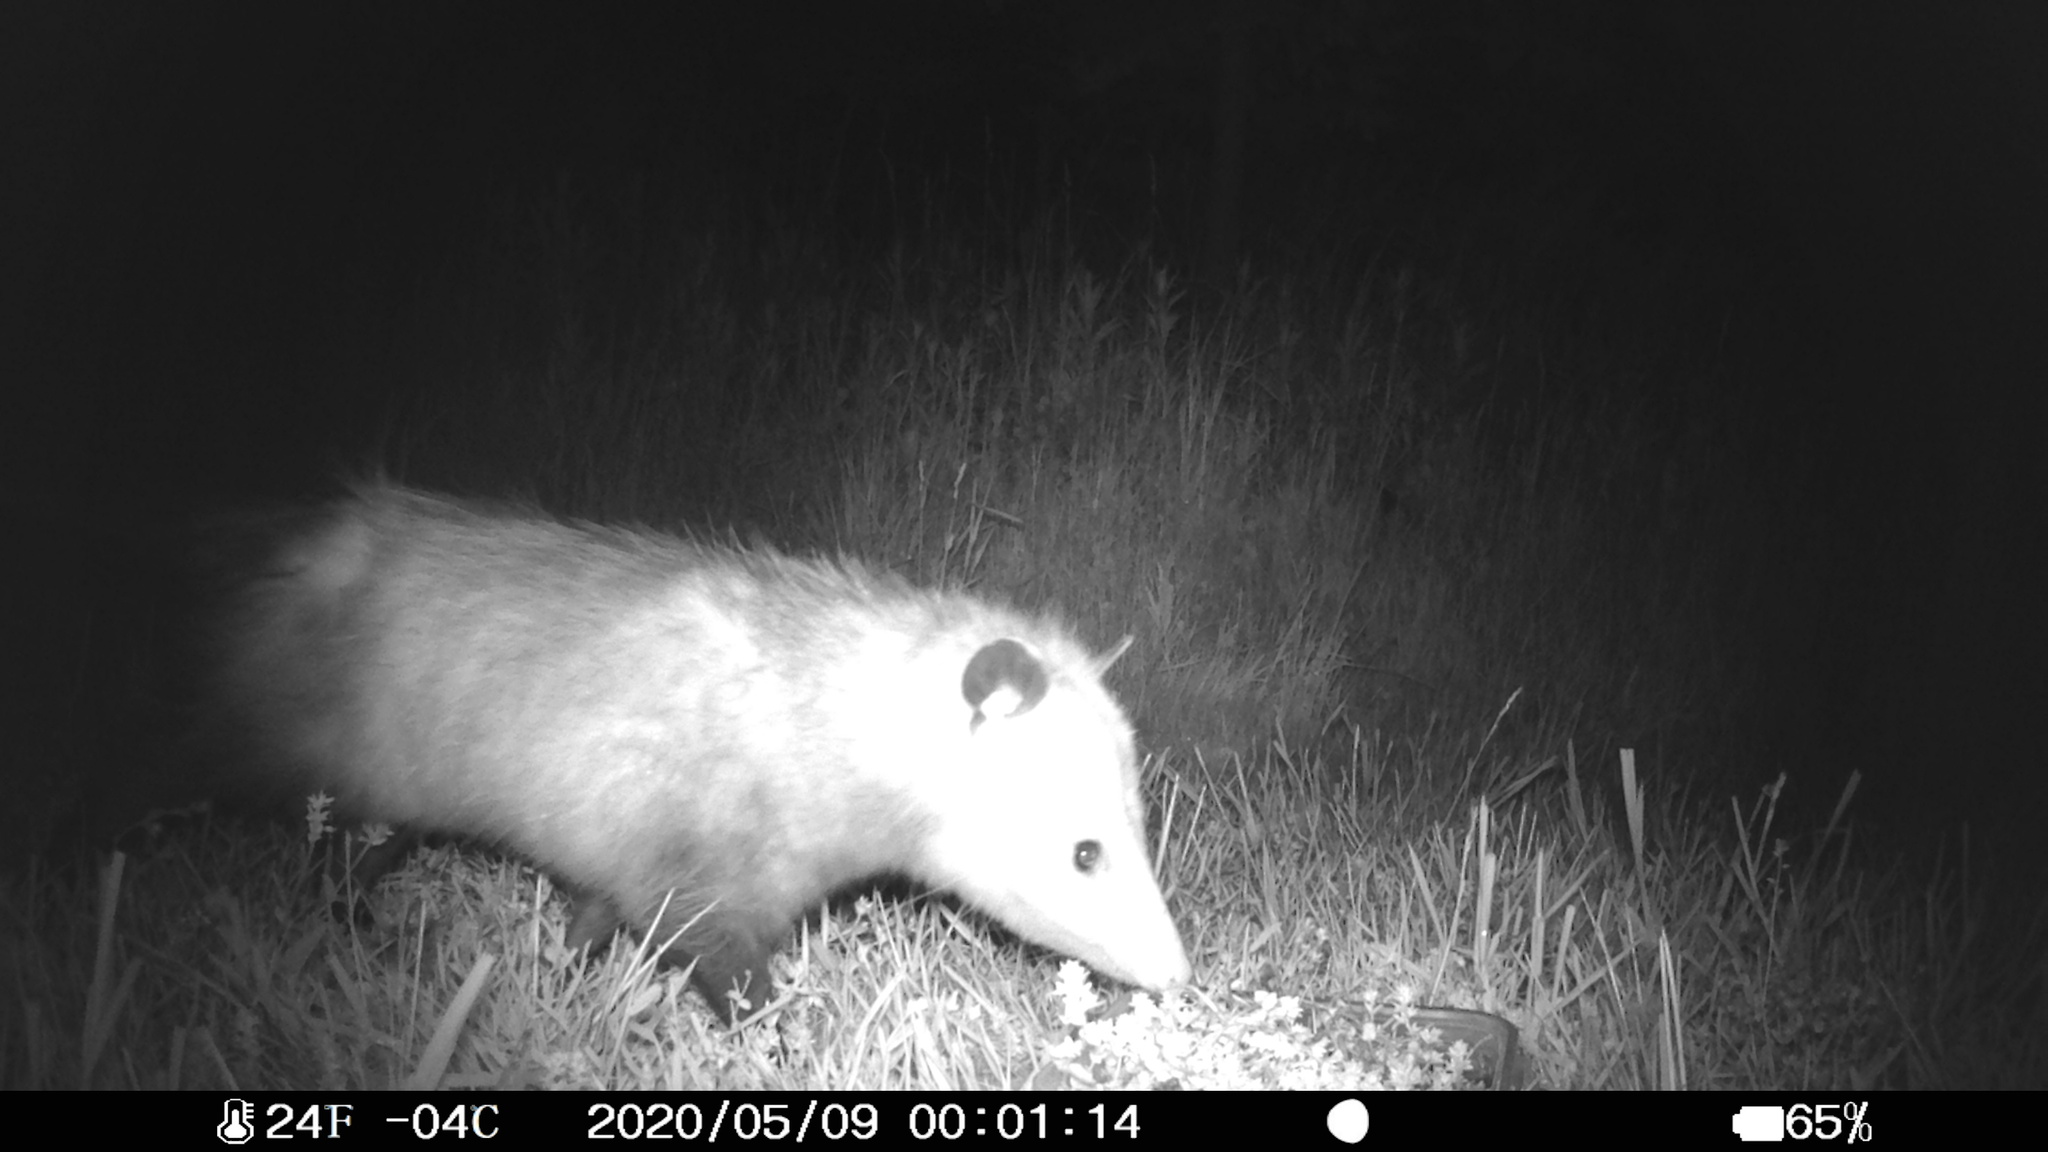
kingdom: Animalia
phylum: Chordata
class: Mammalia
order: Didelphimorphia
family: Didelphidae
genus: Didelphis
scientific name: Didelphis virginiana
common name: Virginia opossum
